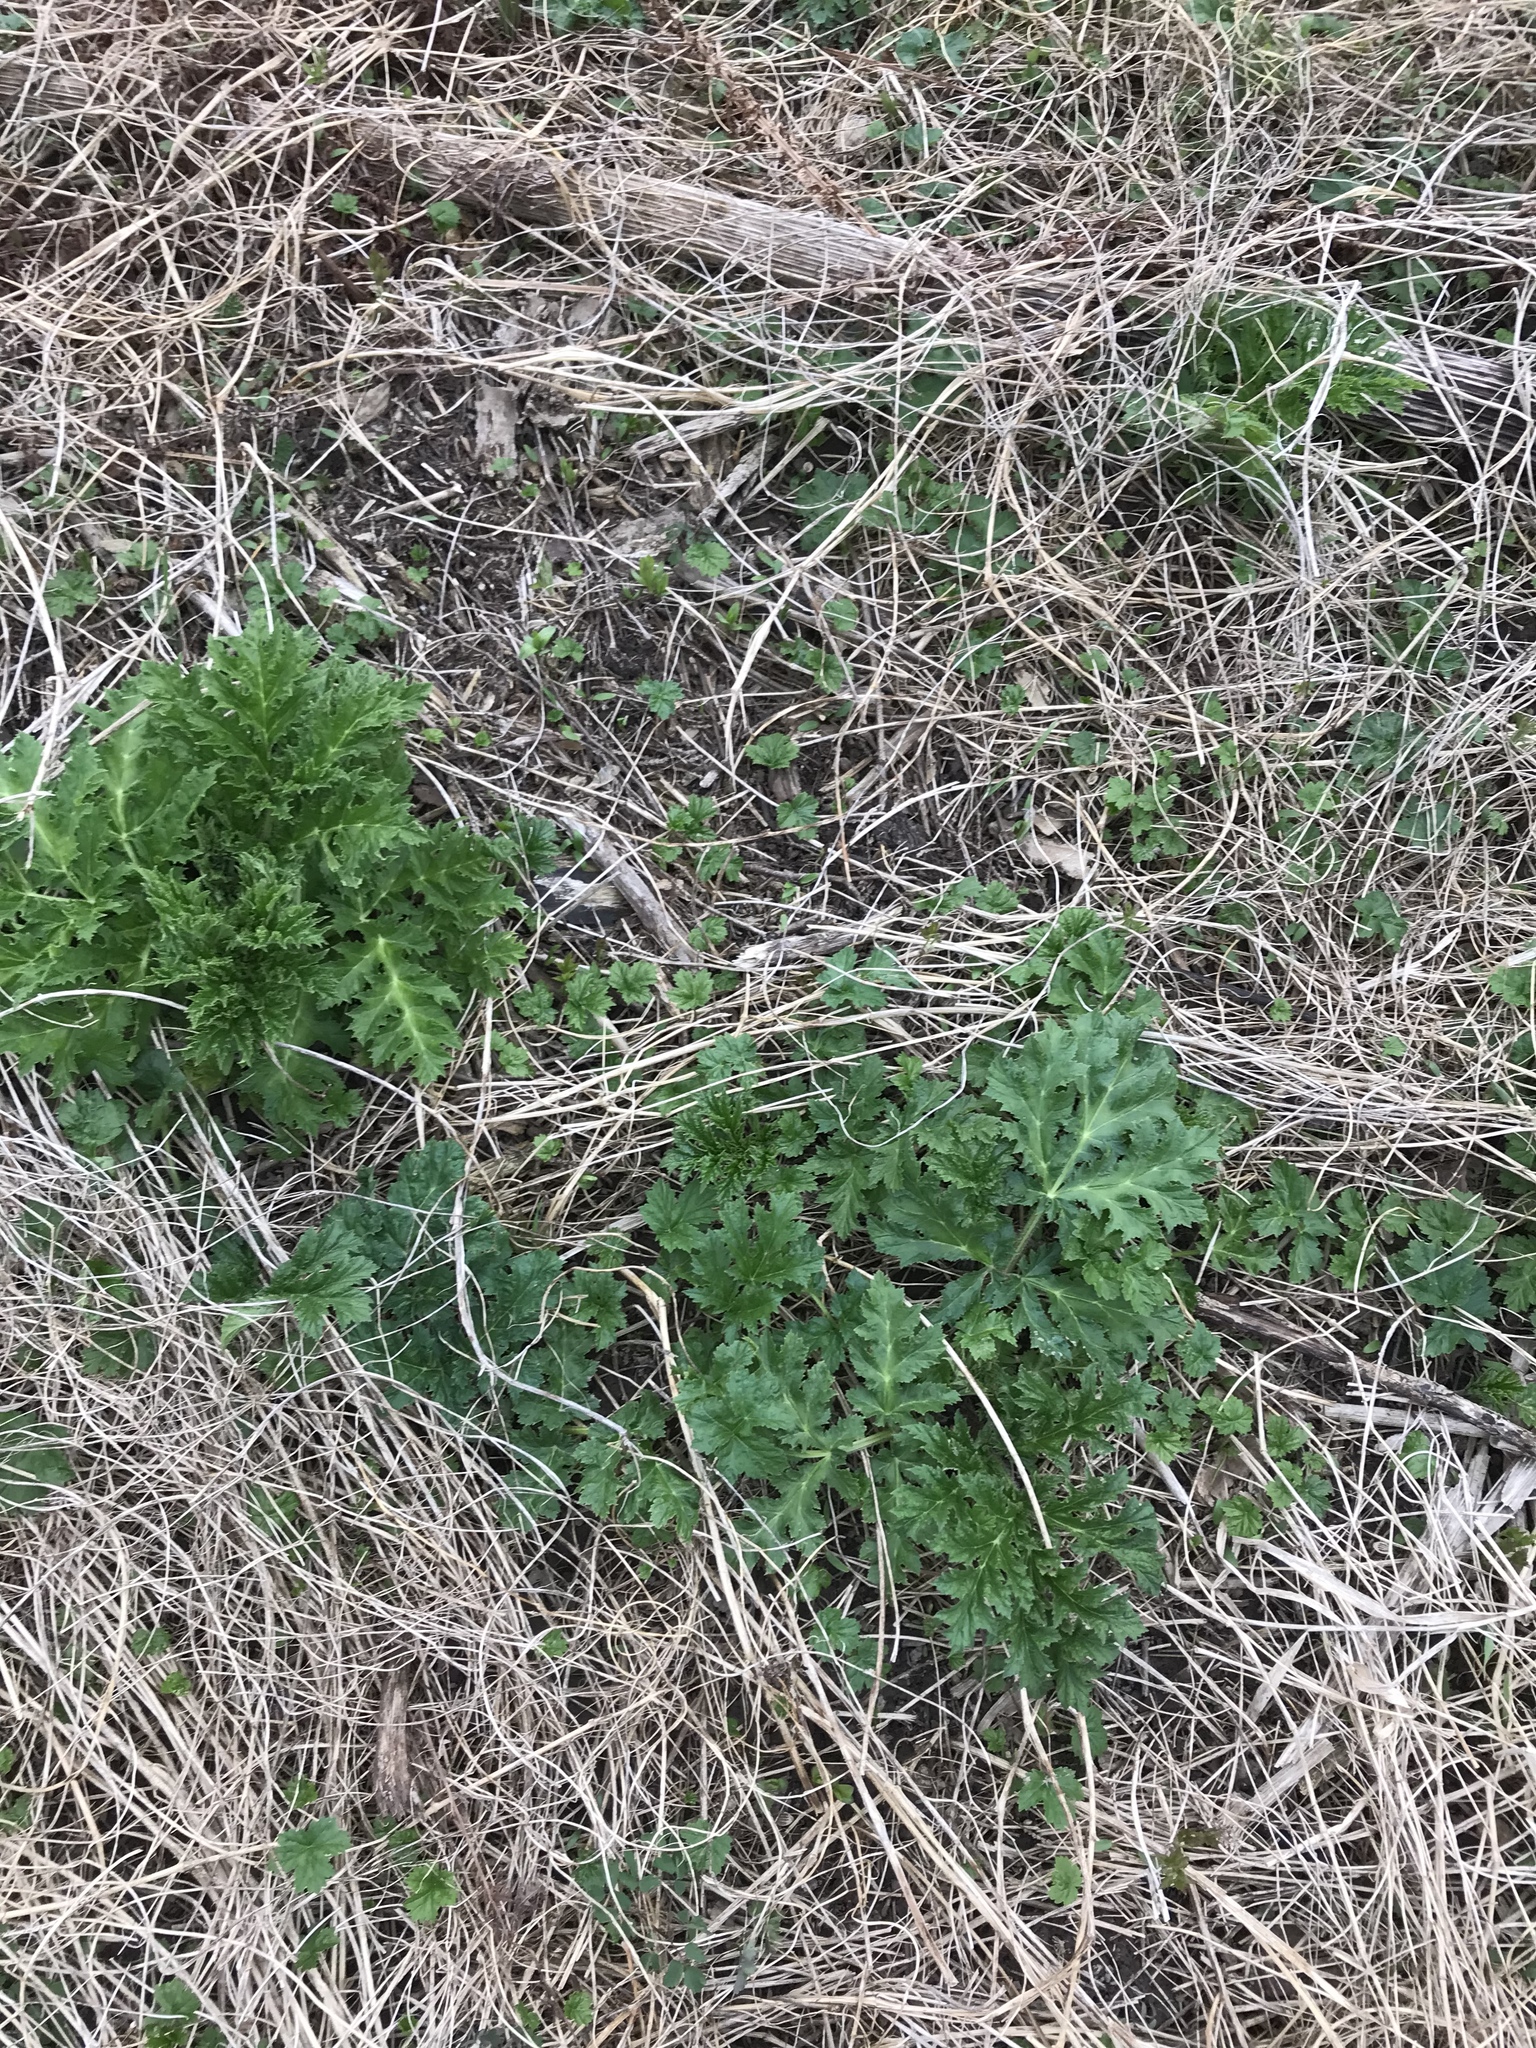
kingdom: Plantae
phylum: Tracheophyta
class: Magnoliopsida
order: Apiales
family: Apiaceae
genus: Heracleum
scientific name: Heracleum mantegazzianum
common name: Giant hogweed
